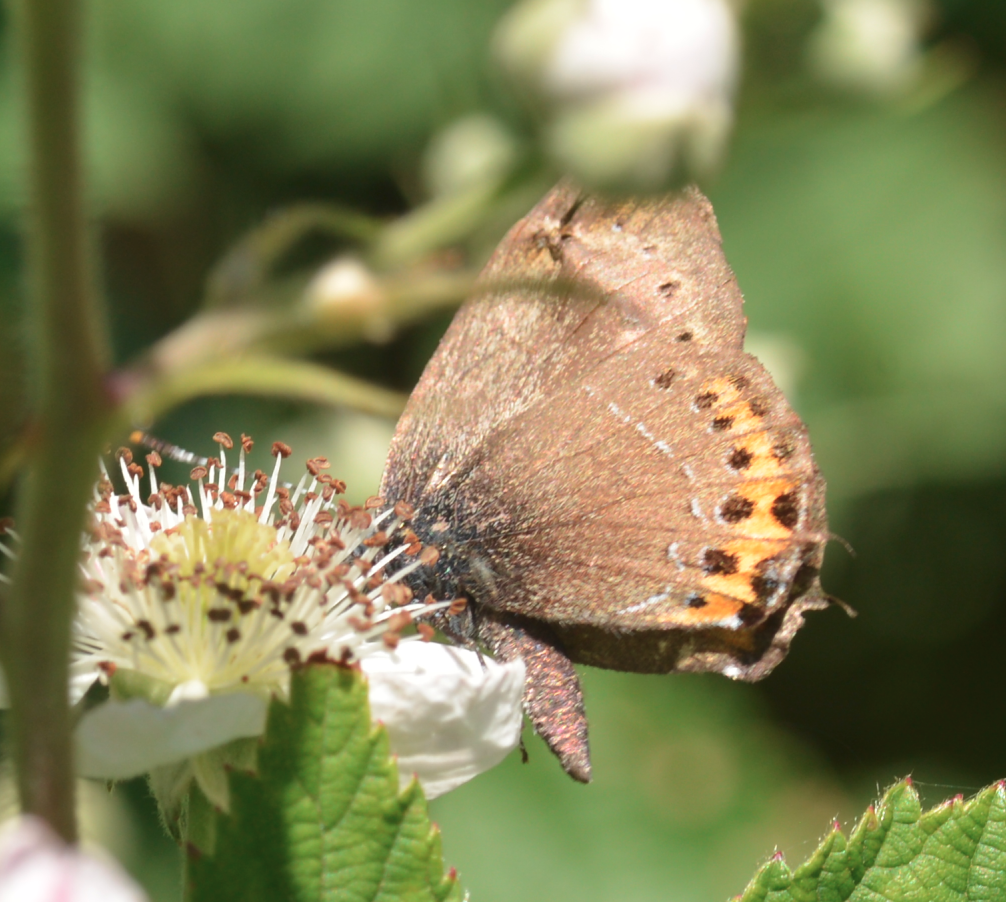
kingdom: Animalia
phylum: Arthropoda
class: Insecta
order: Lepidoptera
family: Lycaenidae
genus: Fixsenia
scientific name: Fixsenia pruni
